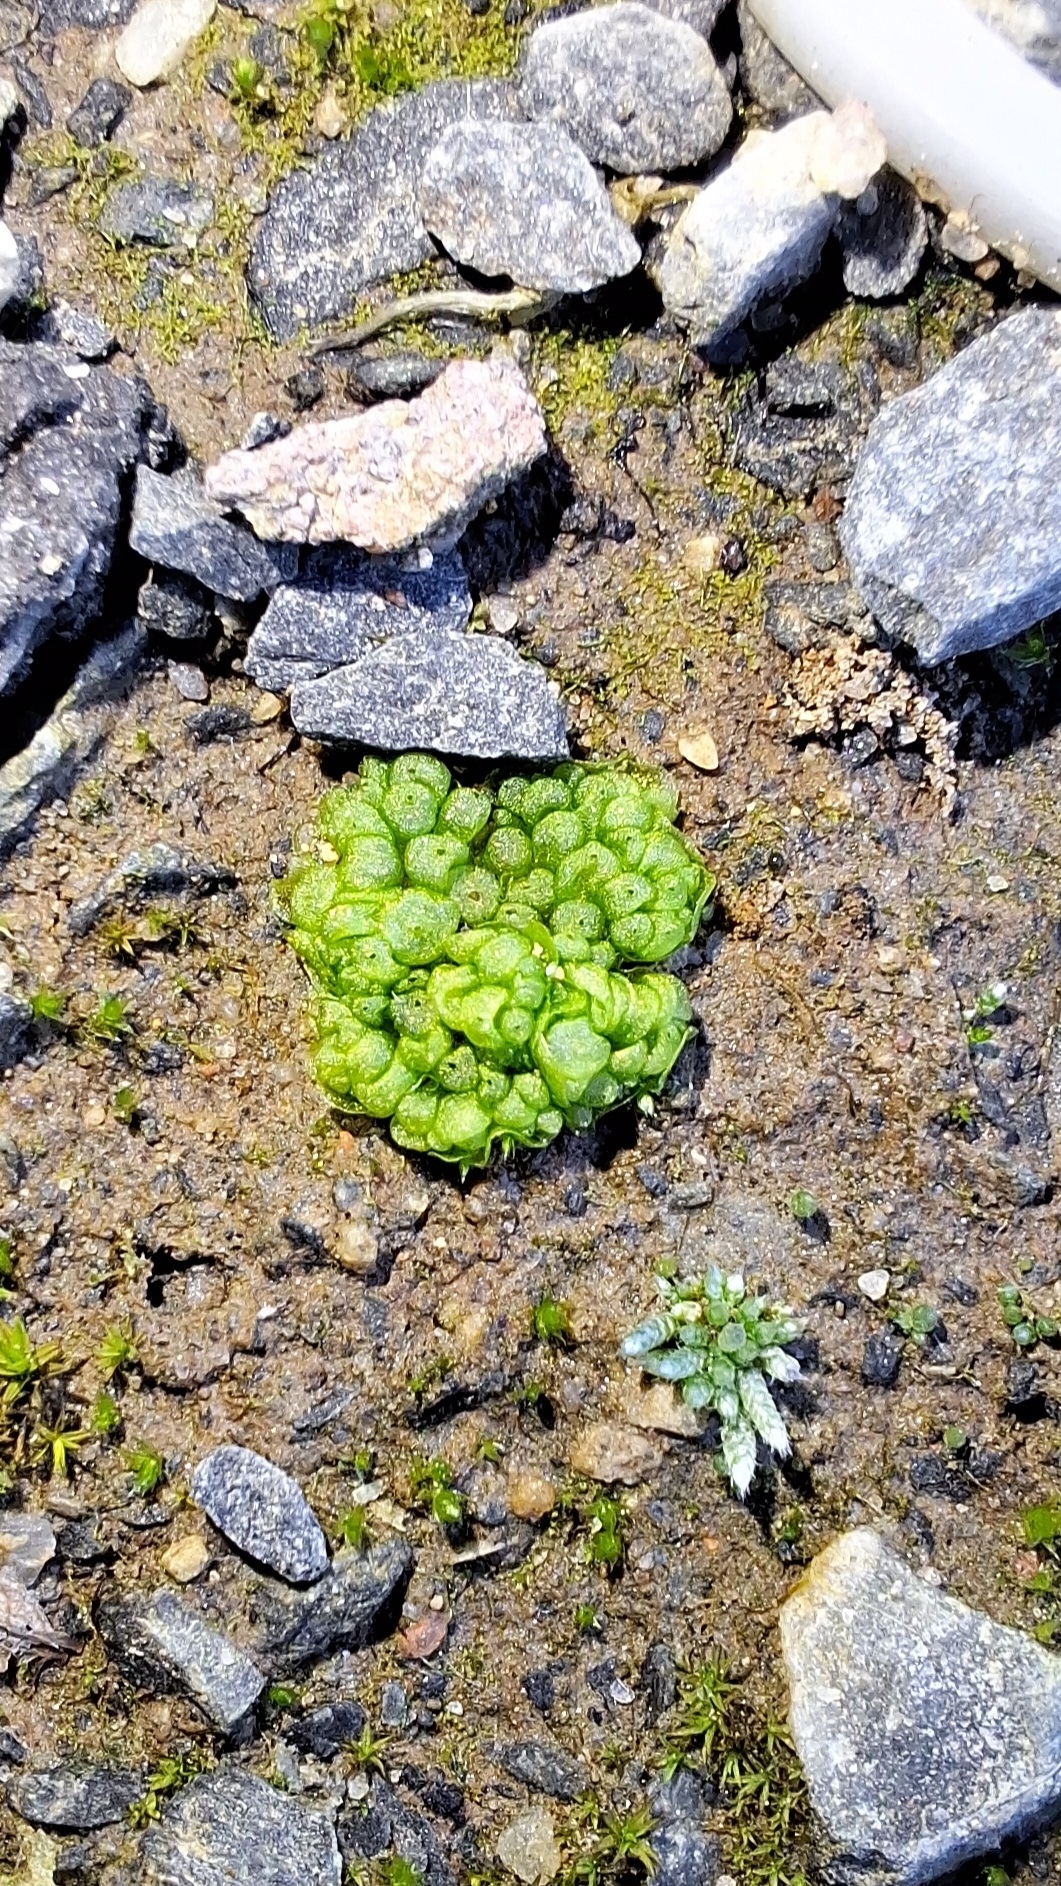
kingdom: Plantae
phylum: Marchantiophyta
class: Marchantiopsida
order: Sphaerocarpales
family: Sphaerocarpaceae
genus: Sphaerocarpos
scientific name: Sphaerocarpos texanus
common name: Texas balloonwort
